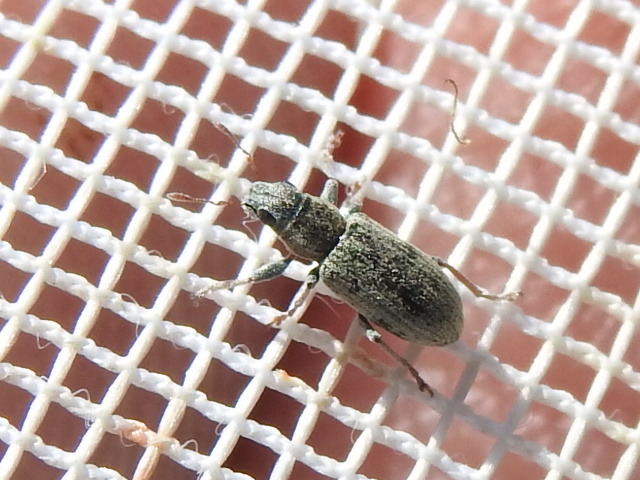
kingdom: Animalia
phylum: Arthropoda
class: Insecta
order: Coleoptera
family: Curculionidae
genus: Sitona
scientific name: Sitona lineatus
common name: Weevil
